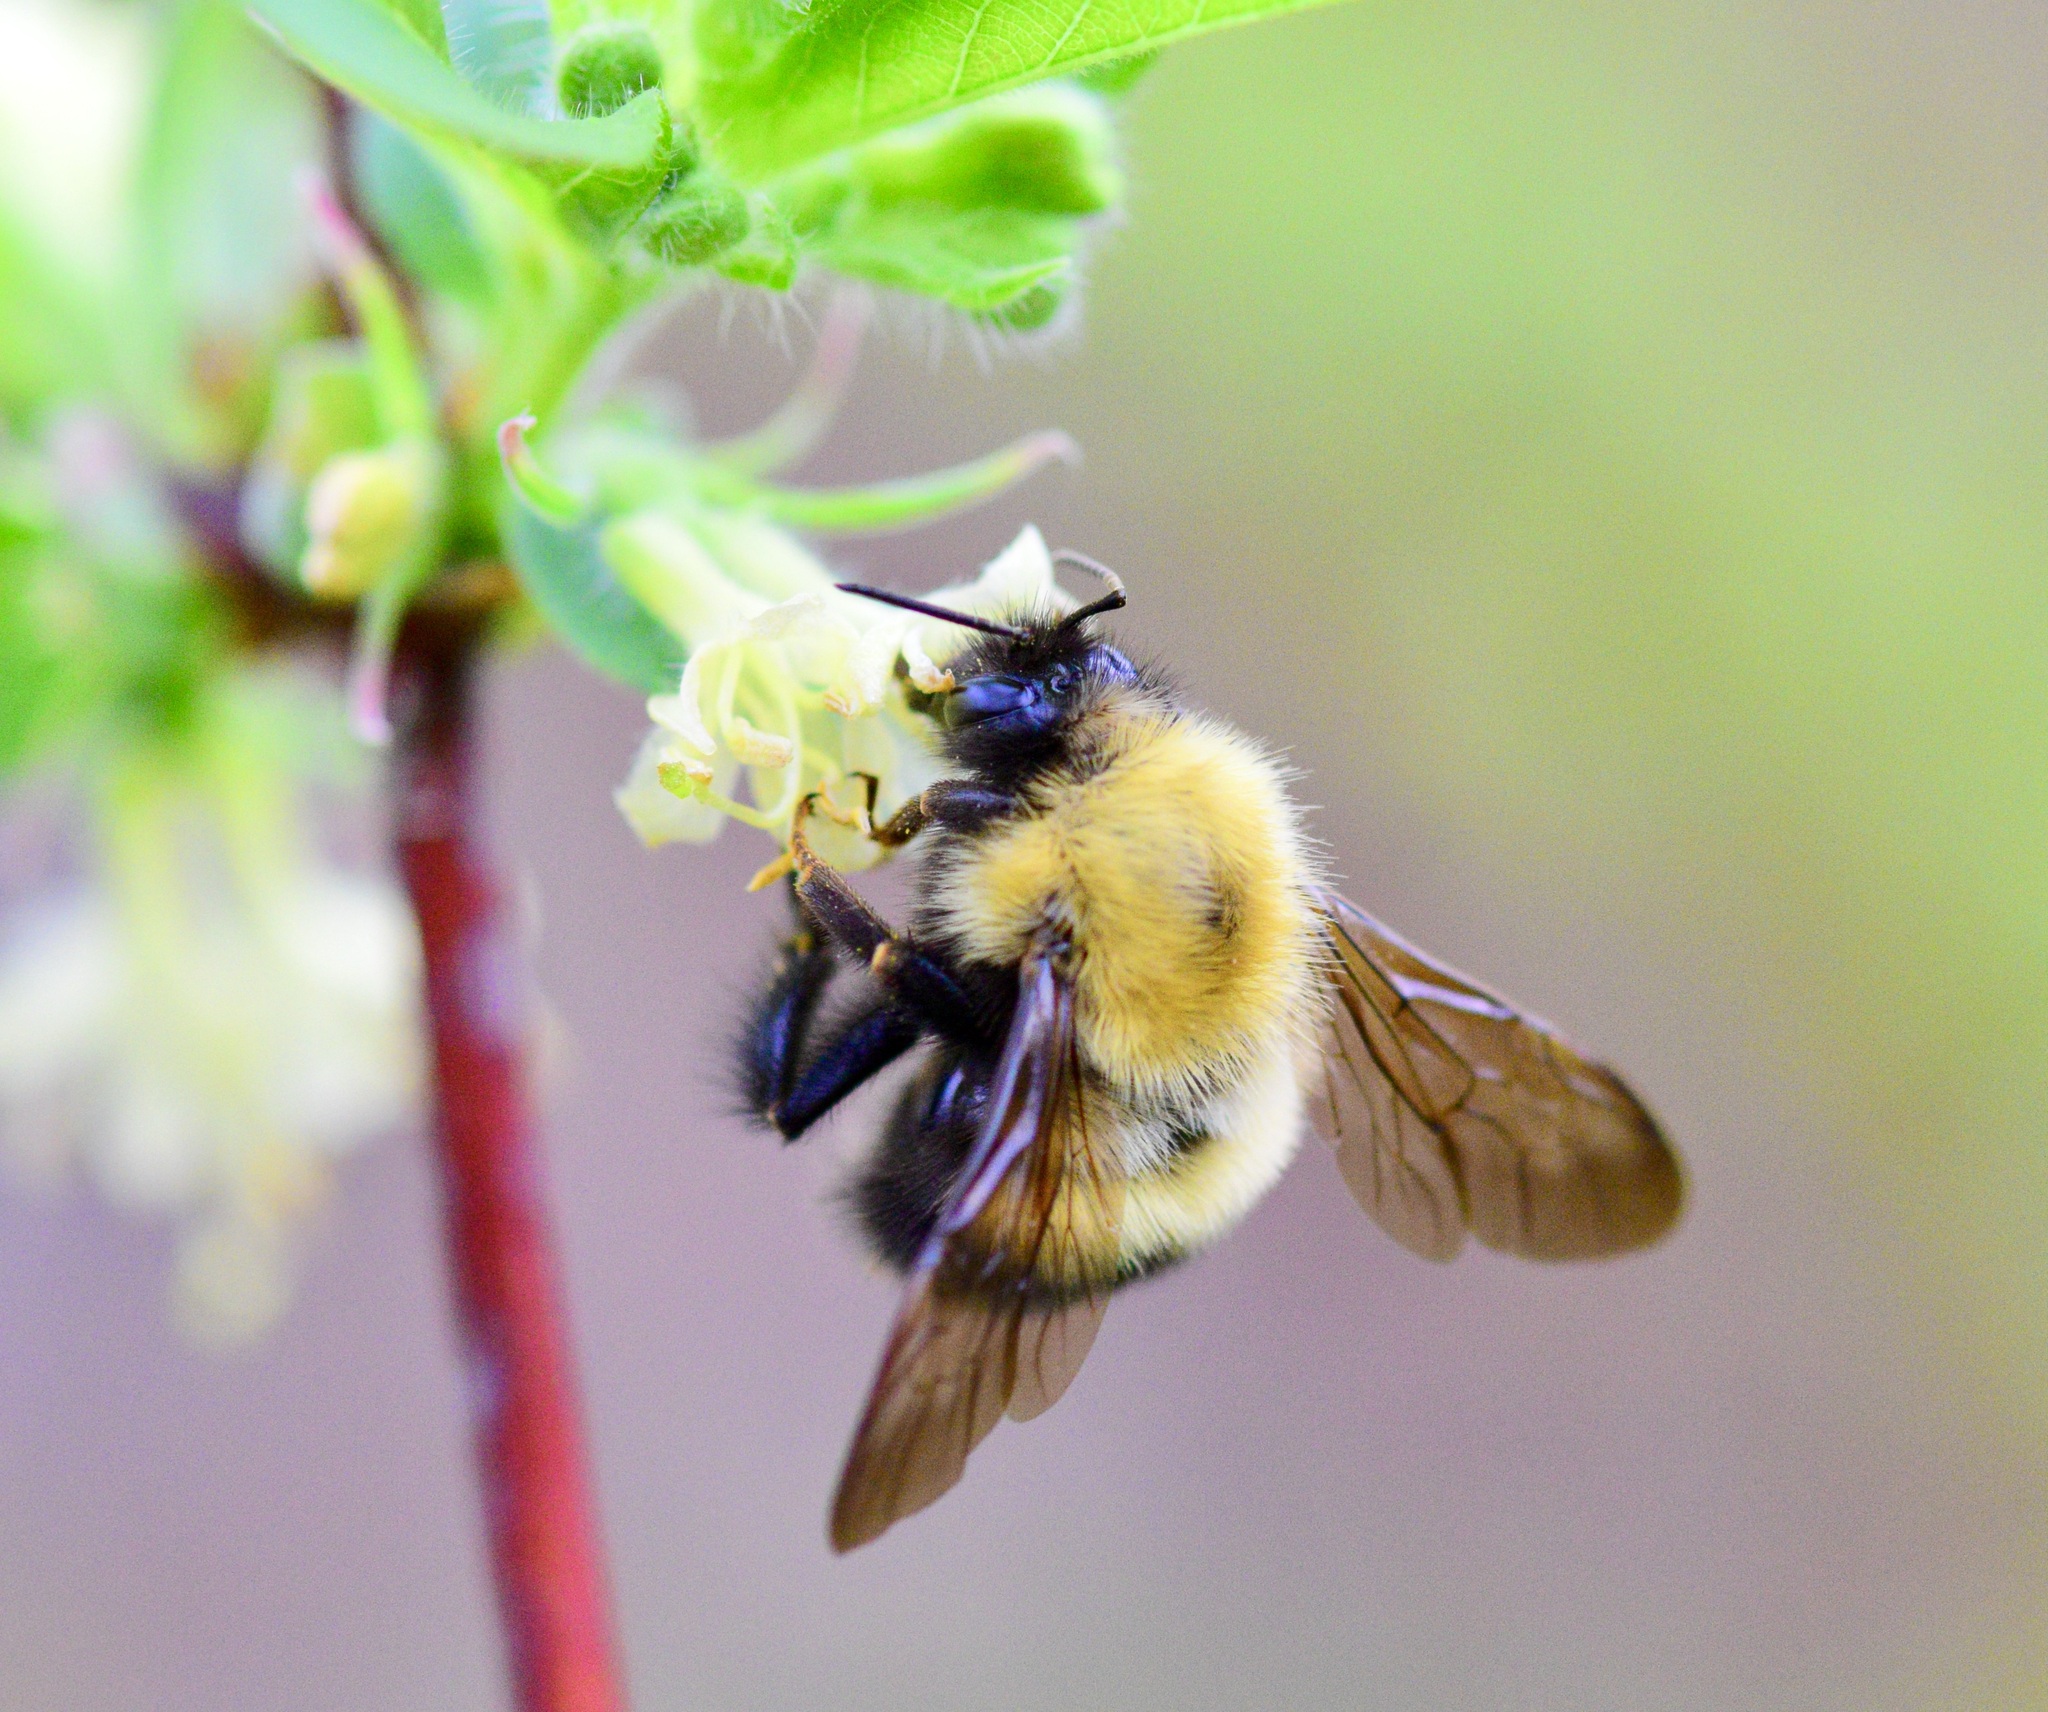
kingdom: Animalia
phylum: Arthropoda
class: Insecta
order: Hymenoptera
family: Apidae
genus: Bombus
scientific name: Bombus perplexus
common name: Confusing bumble bee
